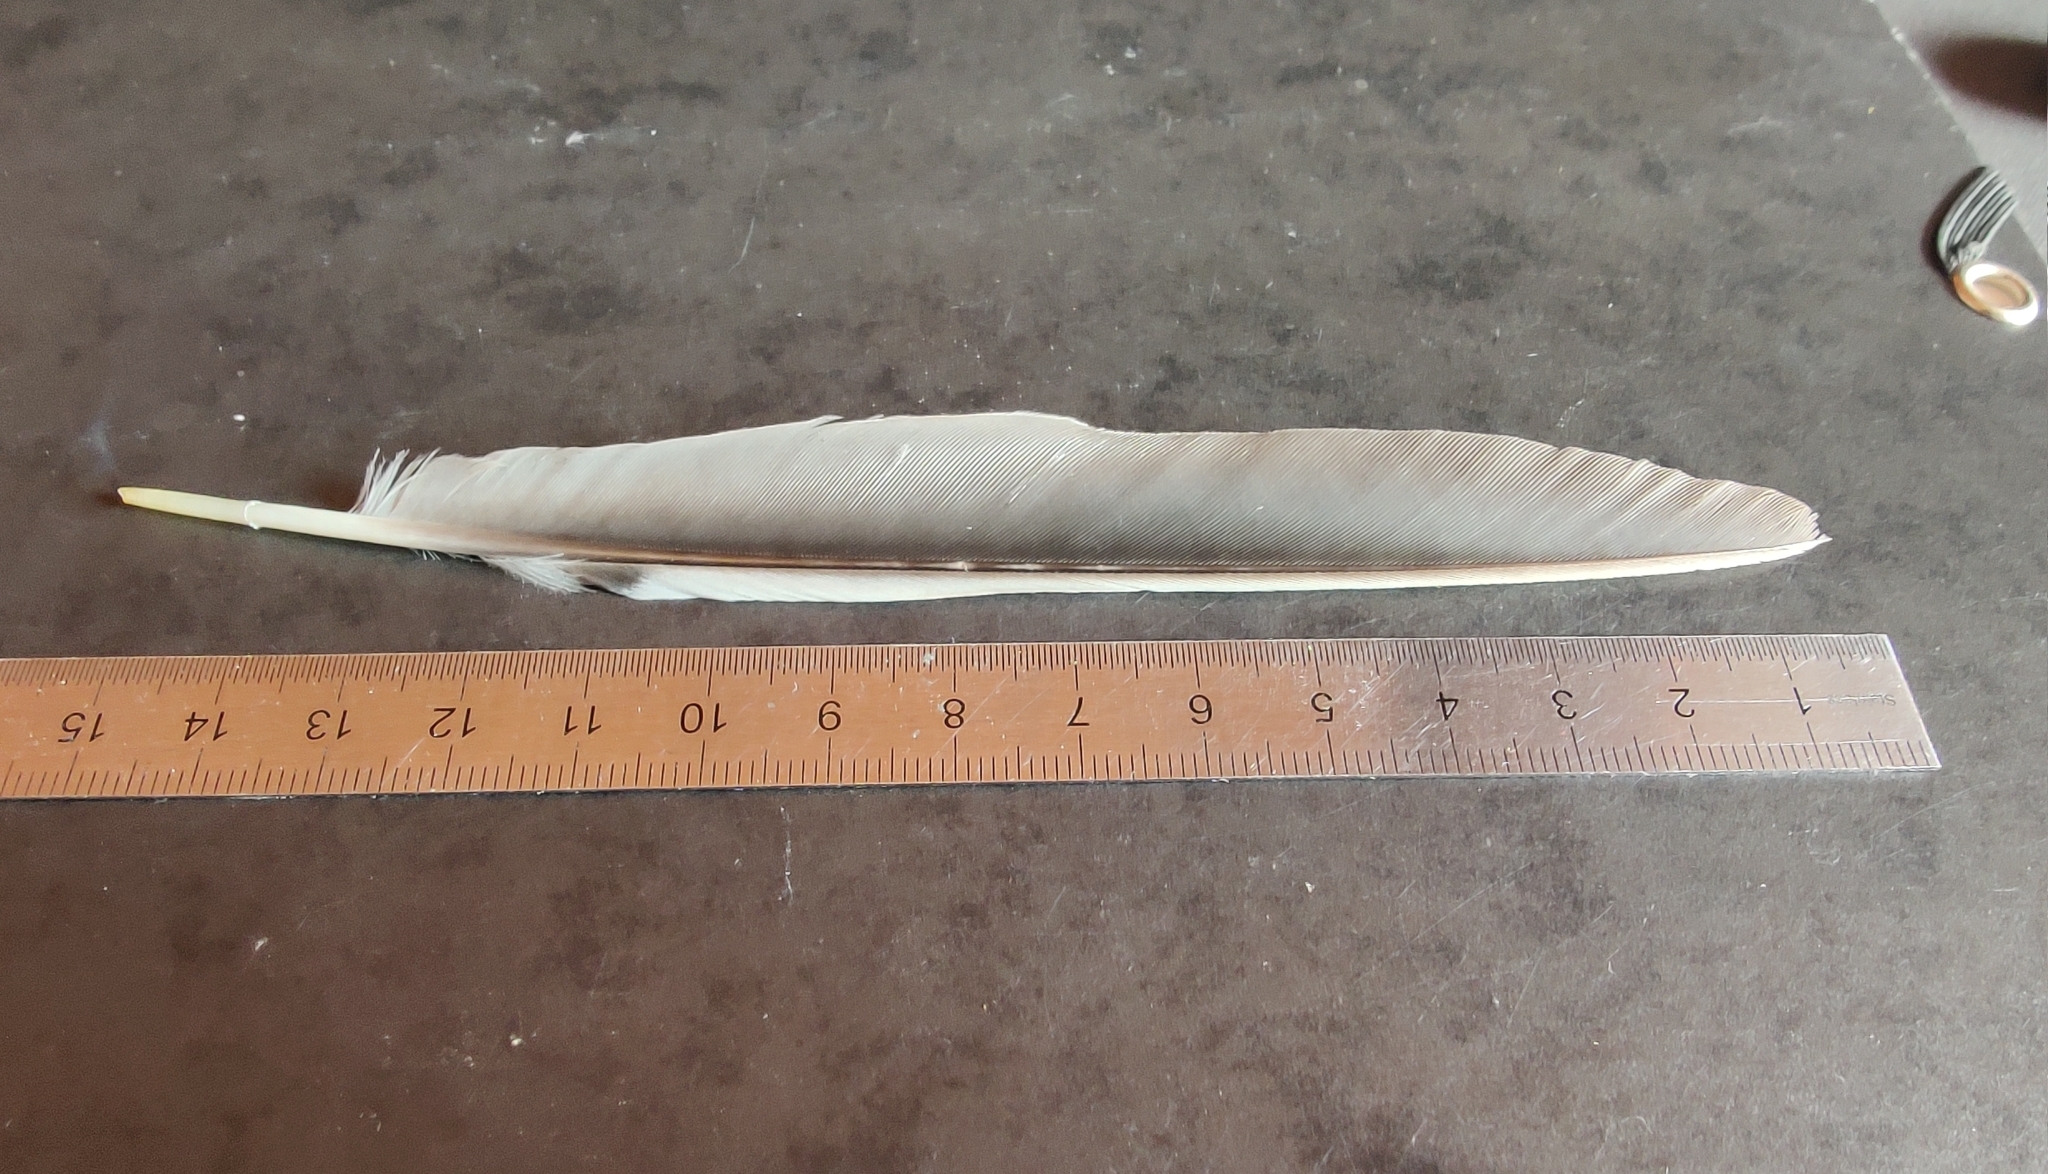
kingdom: Animalia
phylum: Chordata
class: Aves
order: Passeriformes
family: Corvidae
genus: Garrulus
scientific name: Garrulus glandarius
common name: Eurasian jay
